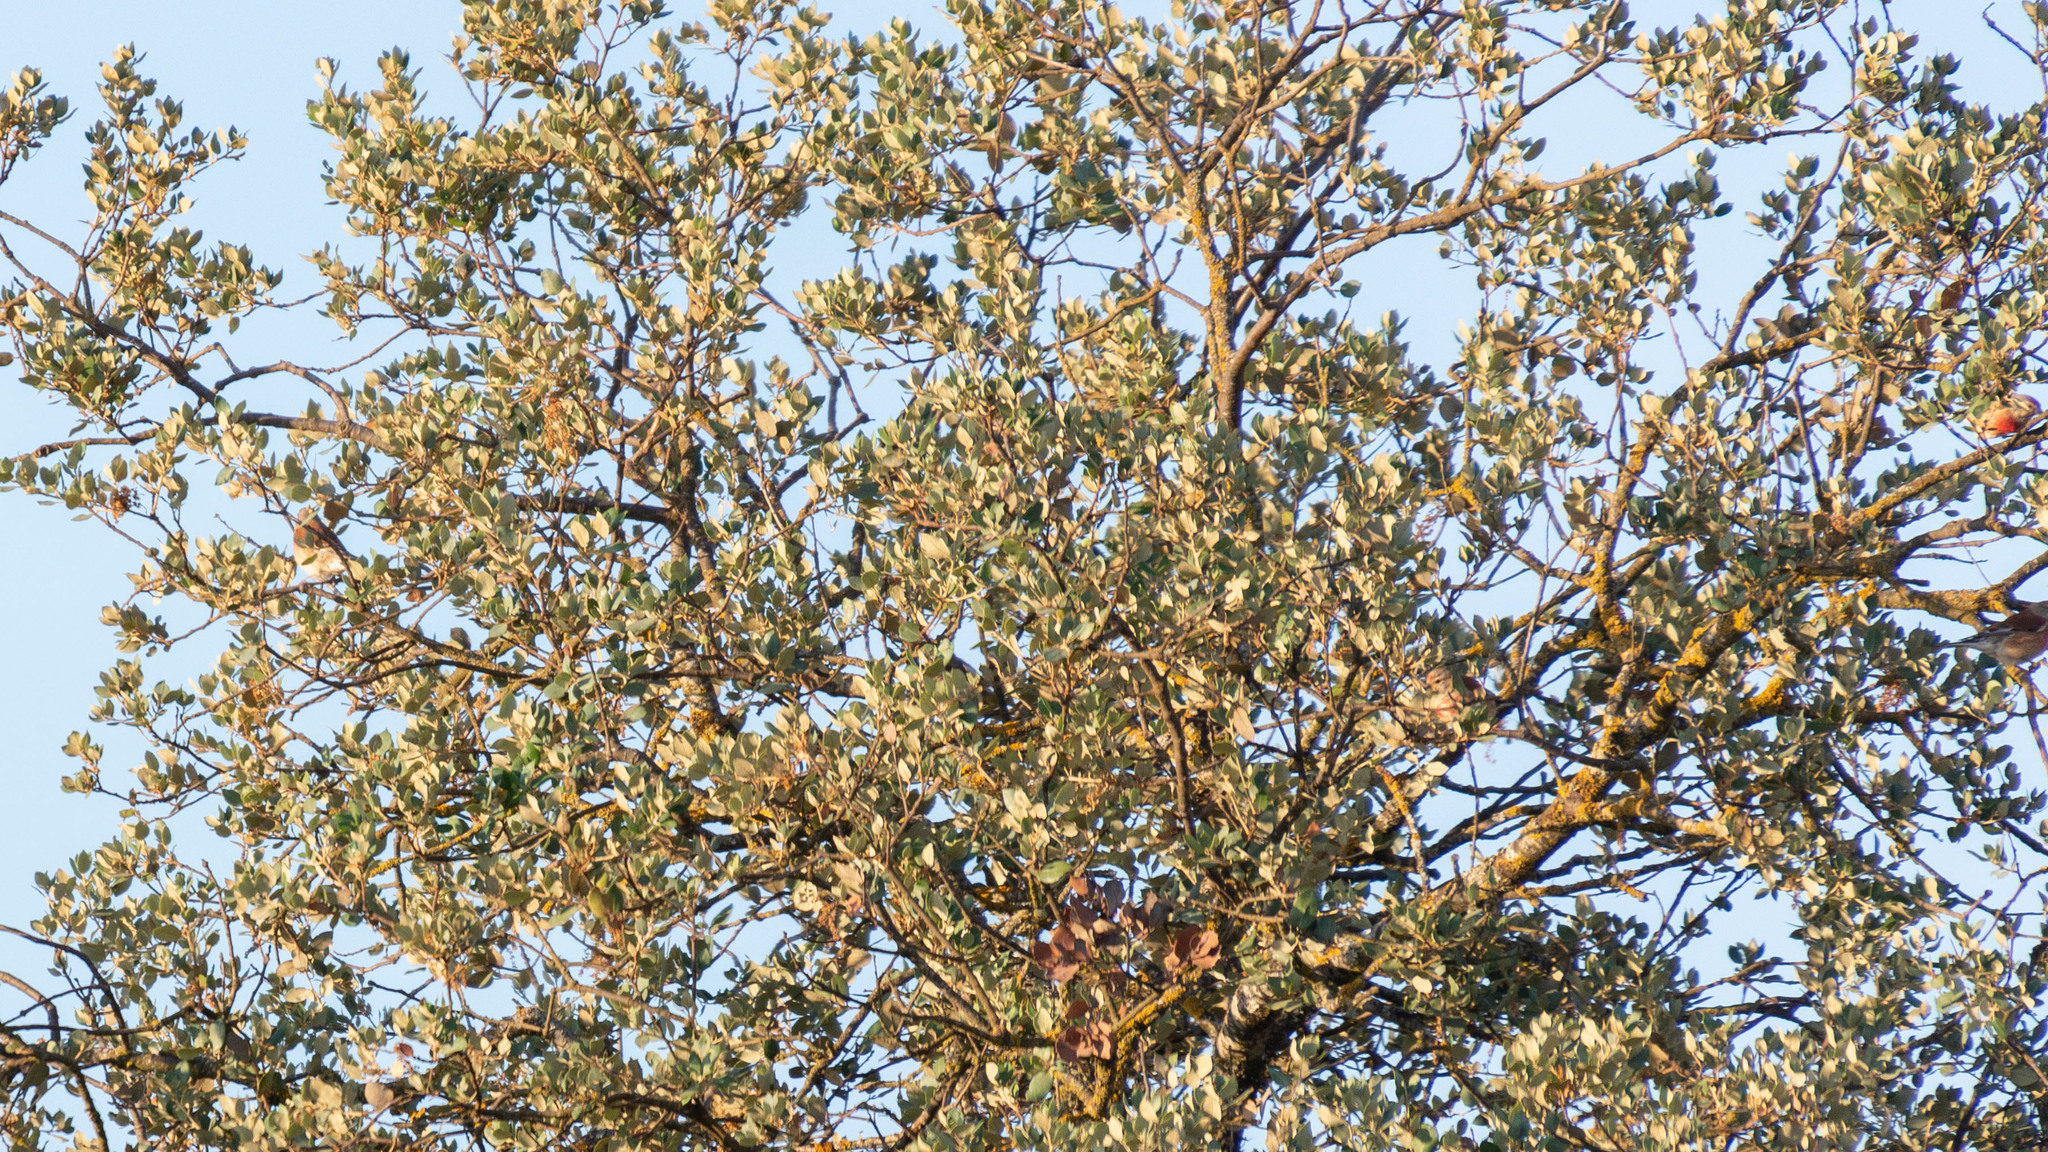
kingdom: Animalia
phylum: Chordata
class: Aves
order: Passeriformes
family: Fringillidae
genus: Linaria
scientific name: Linaria cannabina
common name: Common linnet
